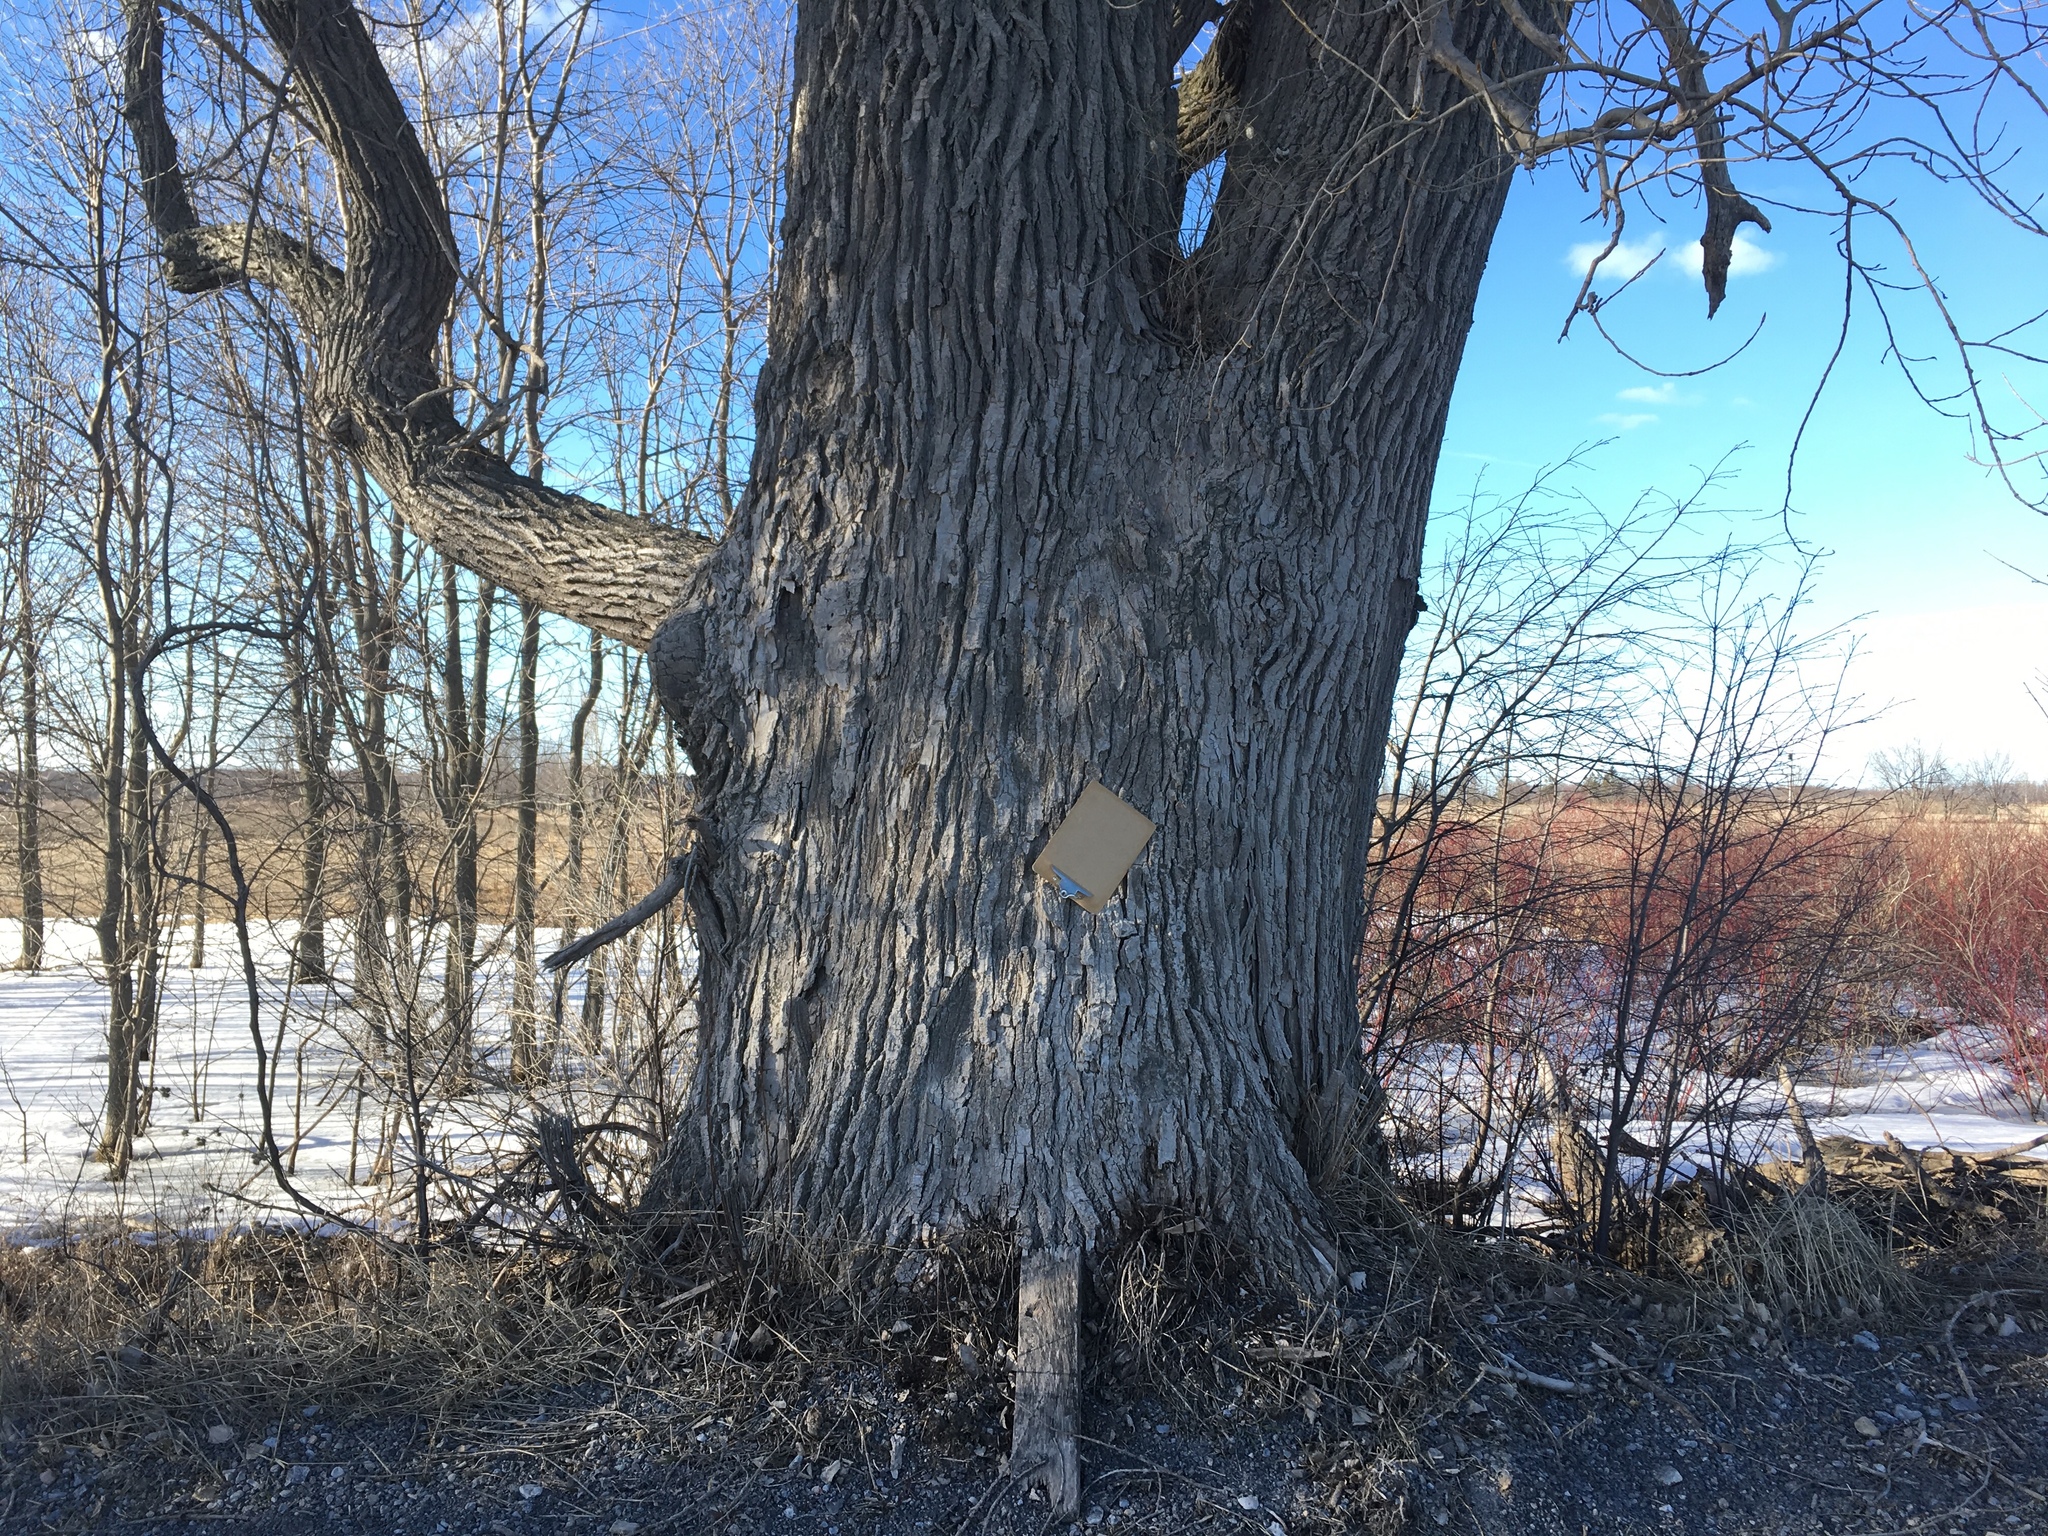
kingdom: Plantae
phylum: Tracheophyta
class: Magnoliopsida
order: Malpighiales
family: Salicaceae
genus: Populus
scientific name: Populus deltoides
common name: Eastern cottonwood
